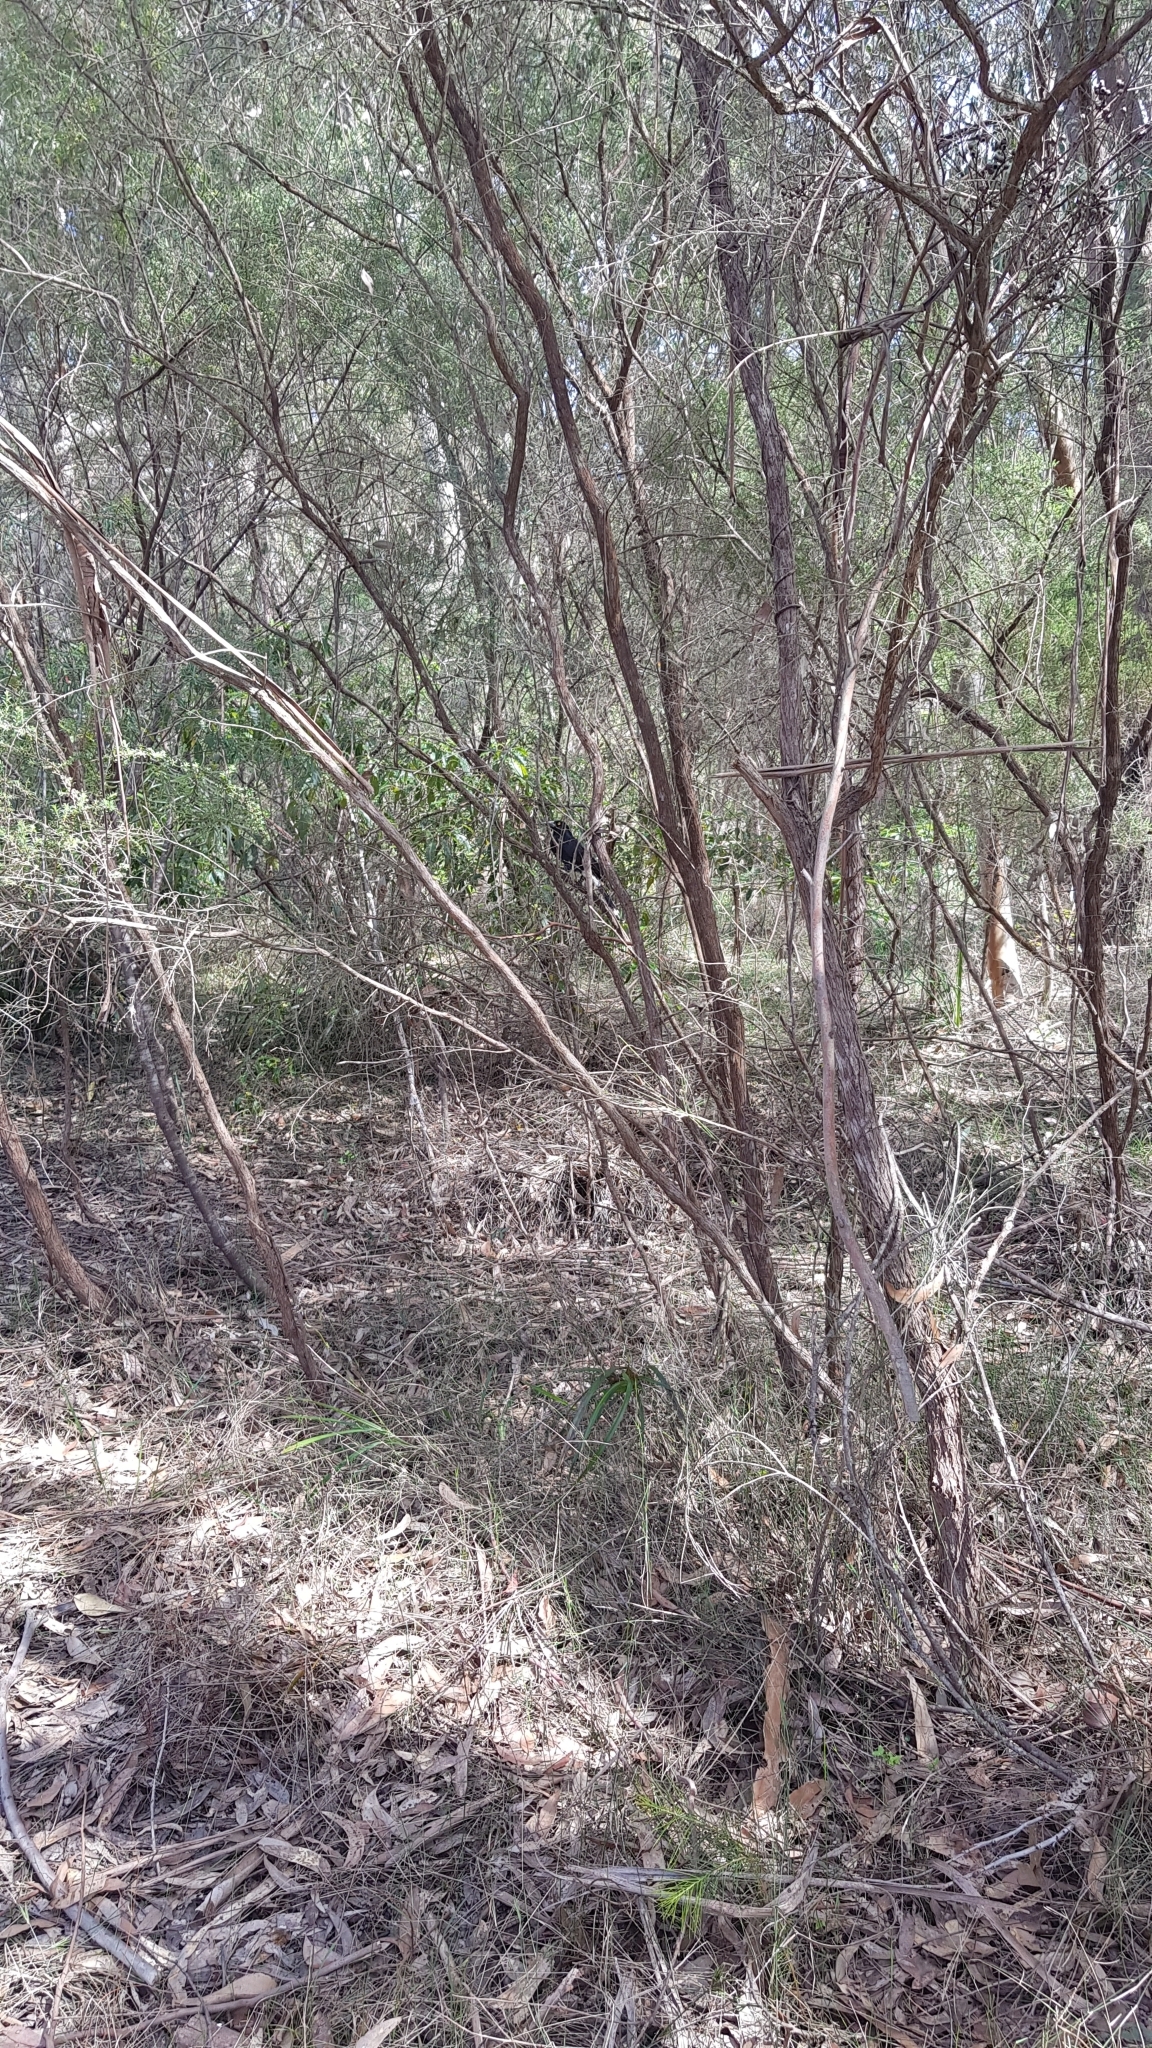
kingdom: Animalia
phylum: Chordata
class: Aves
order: Passeriformes
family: Cracticidae
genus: Strepera
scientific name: Strepera graculina
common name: Pied currawong
